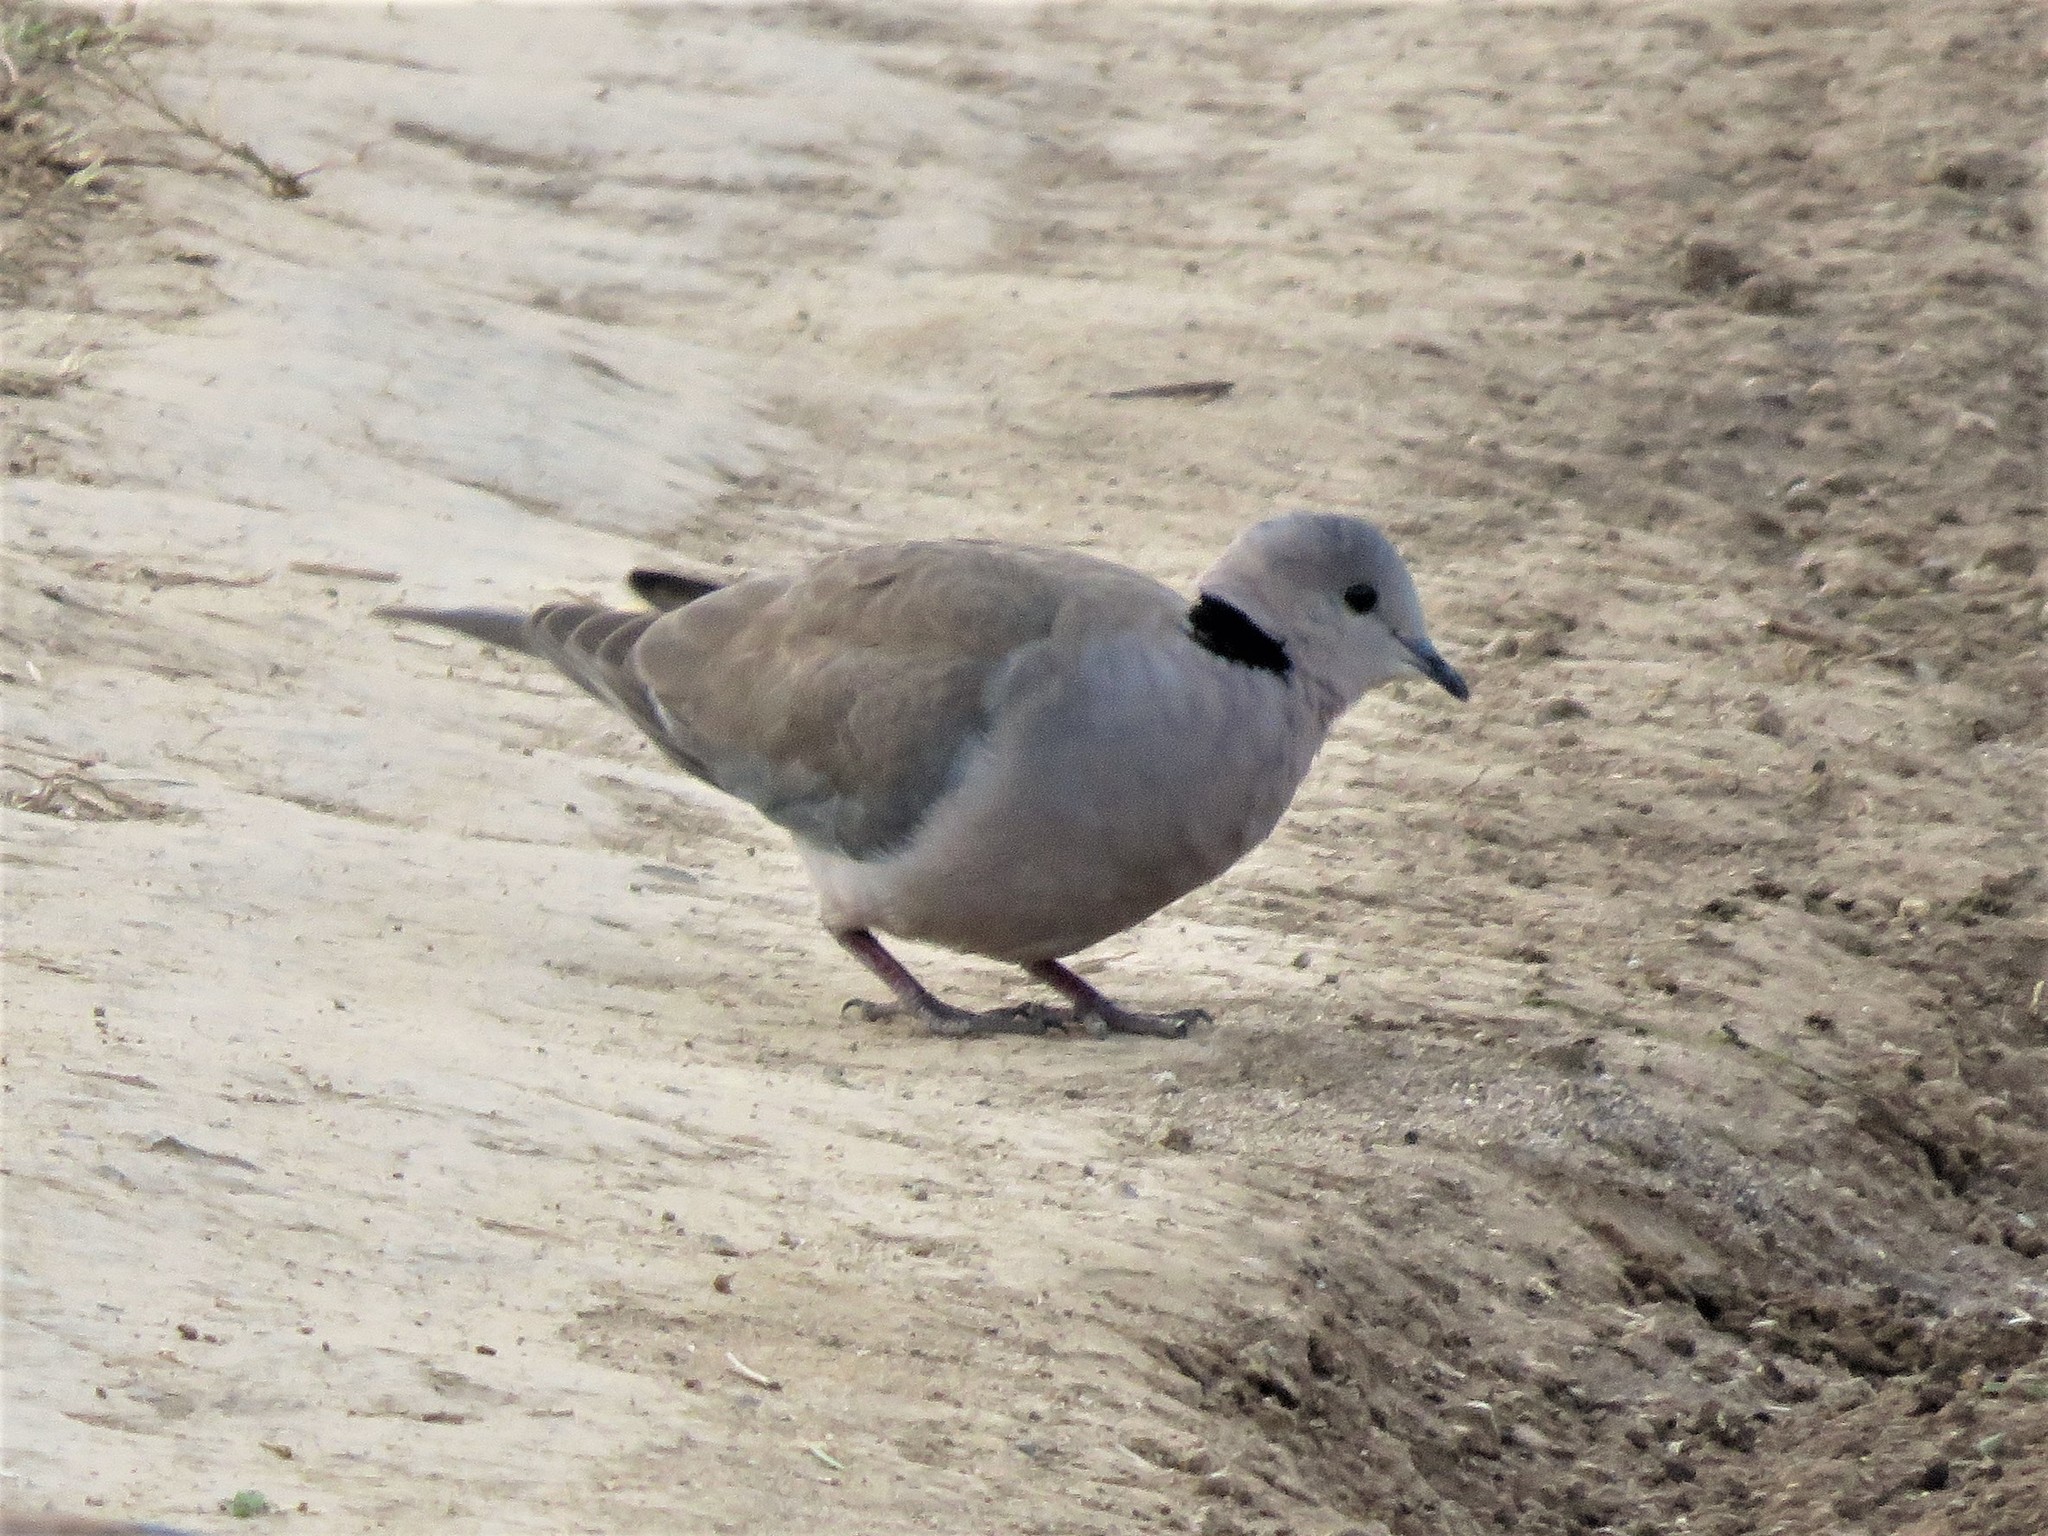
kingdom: Animalia
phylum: Chordata
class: Aves
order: Columbiformes
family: Columbidae
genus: Streptopelia
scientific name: Streptopelia capicola
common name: Ring-necked dove
